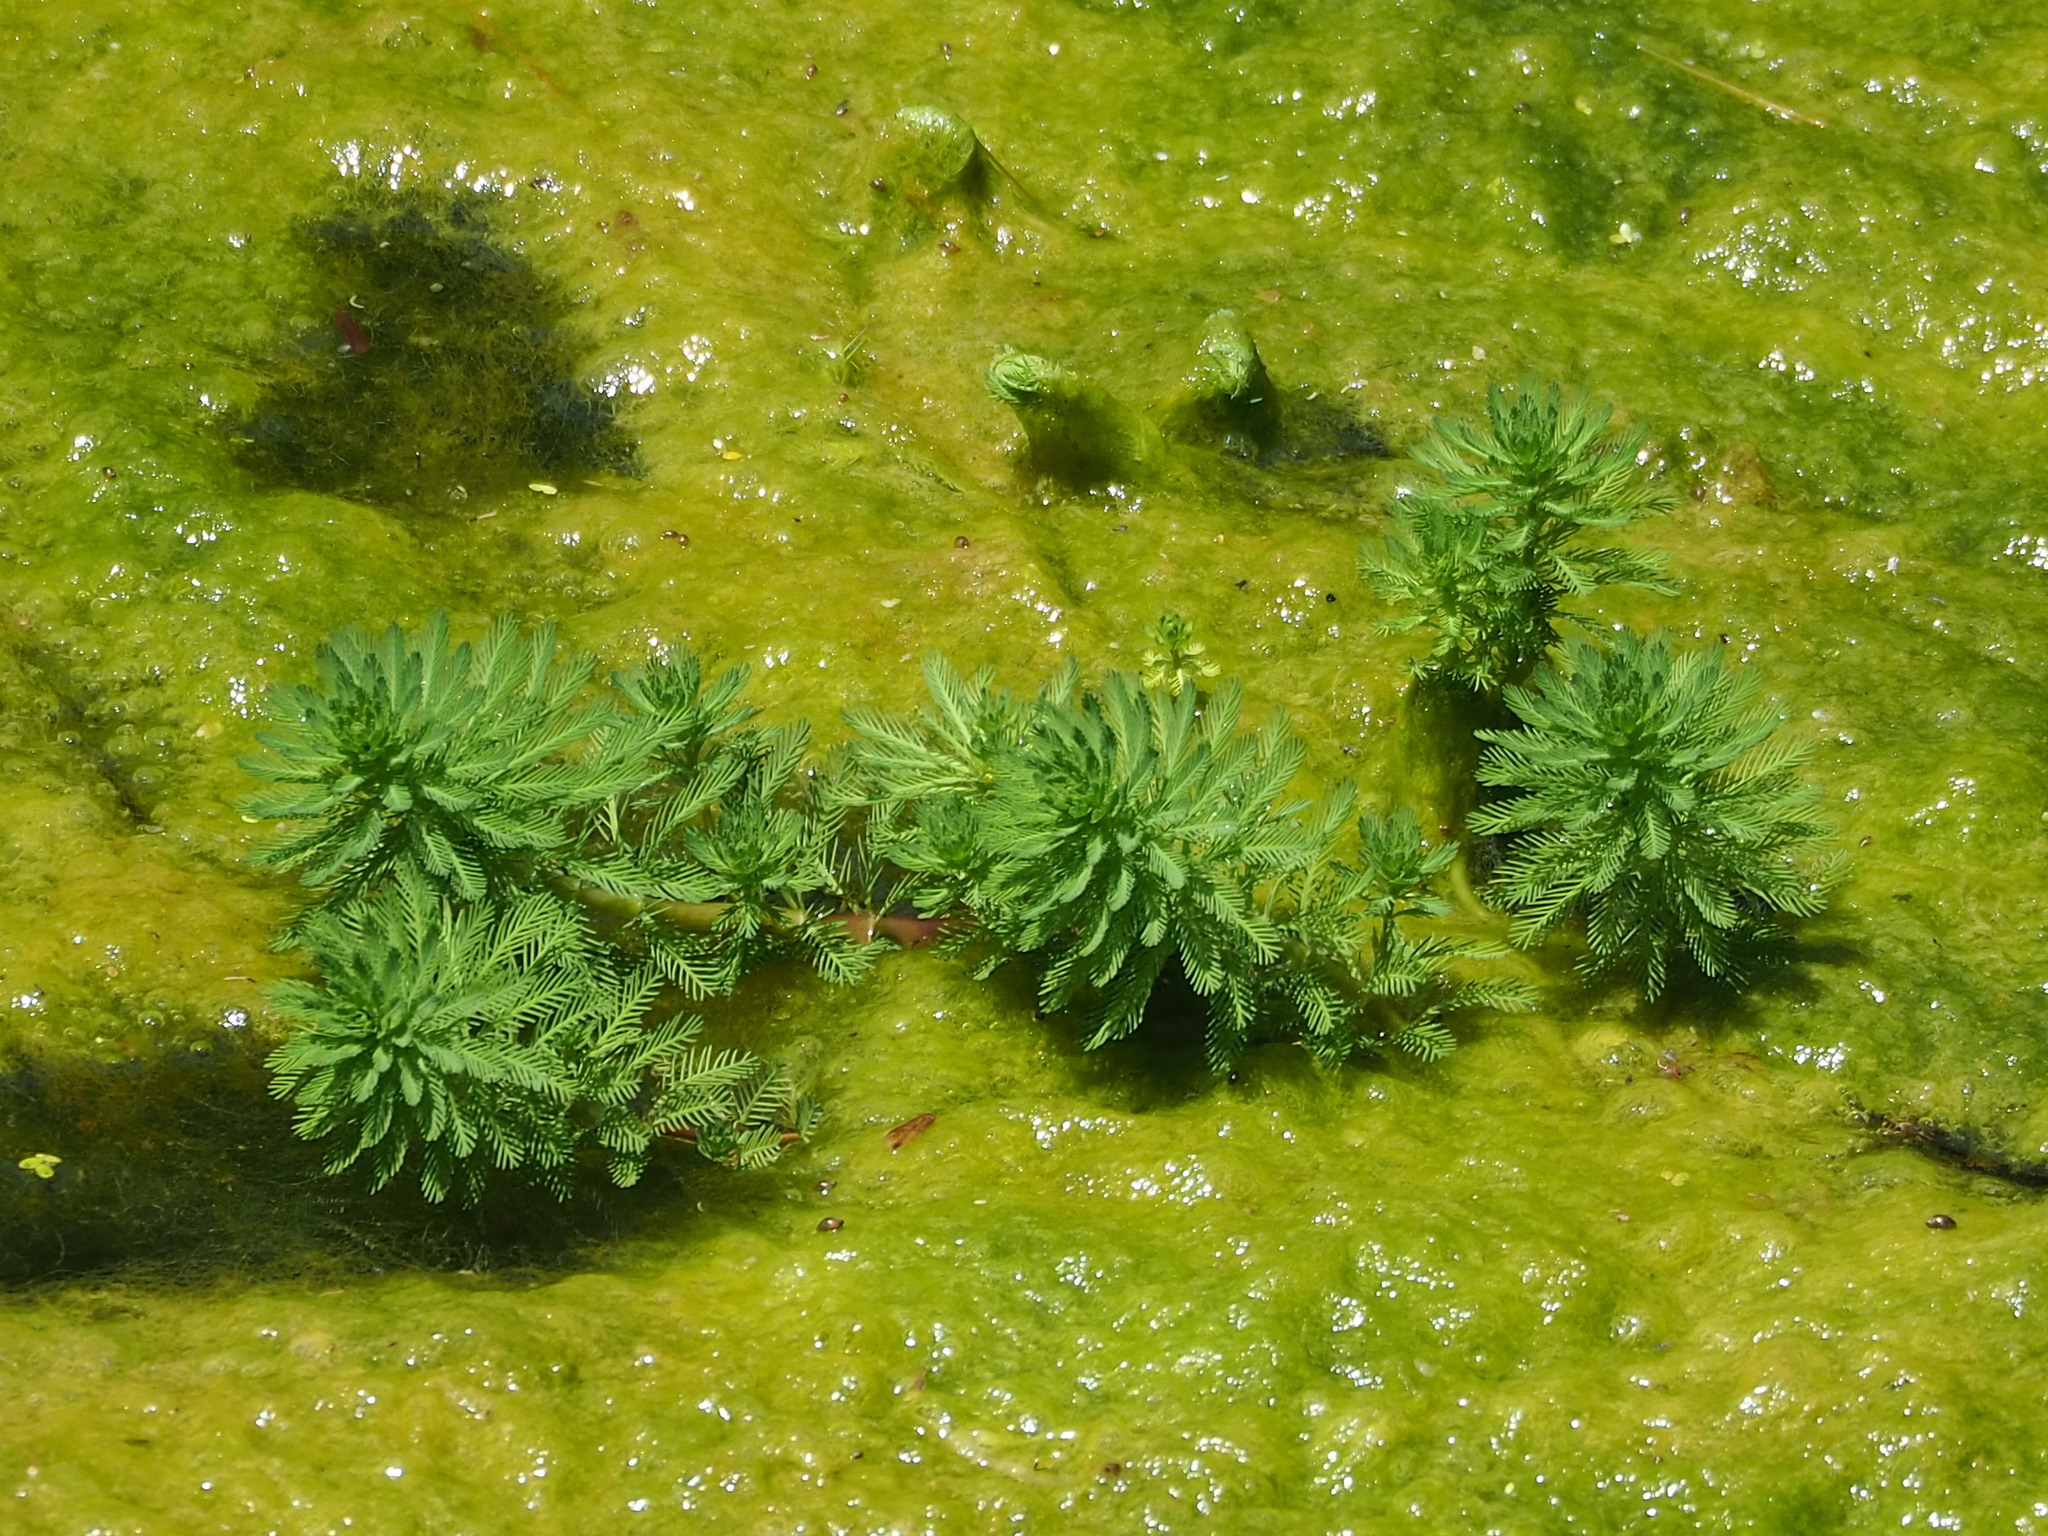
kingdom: Plantae
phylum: Tracheophyta
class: Magnoliopsida
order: Saxifragales
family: Haloragaceae
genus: Myriophyllum
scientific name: Myriophyllum aquaticum
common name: Parrot's feather
